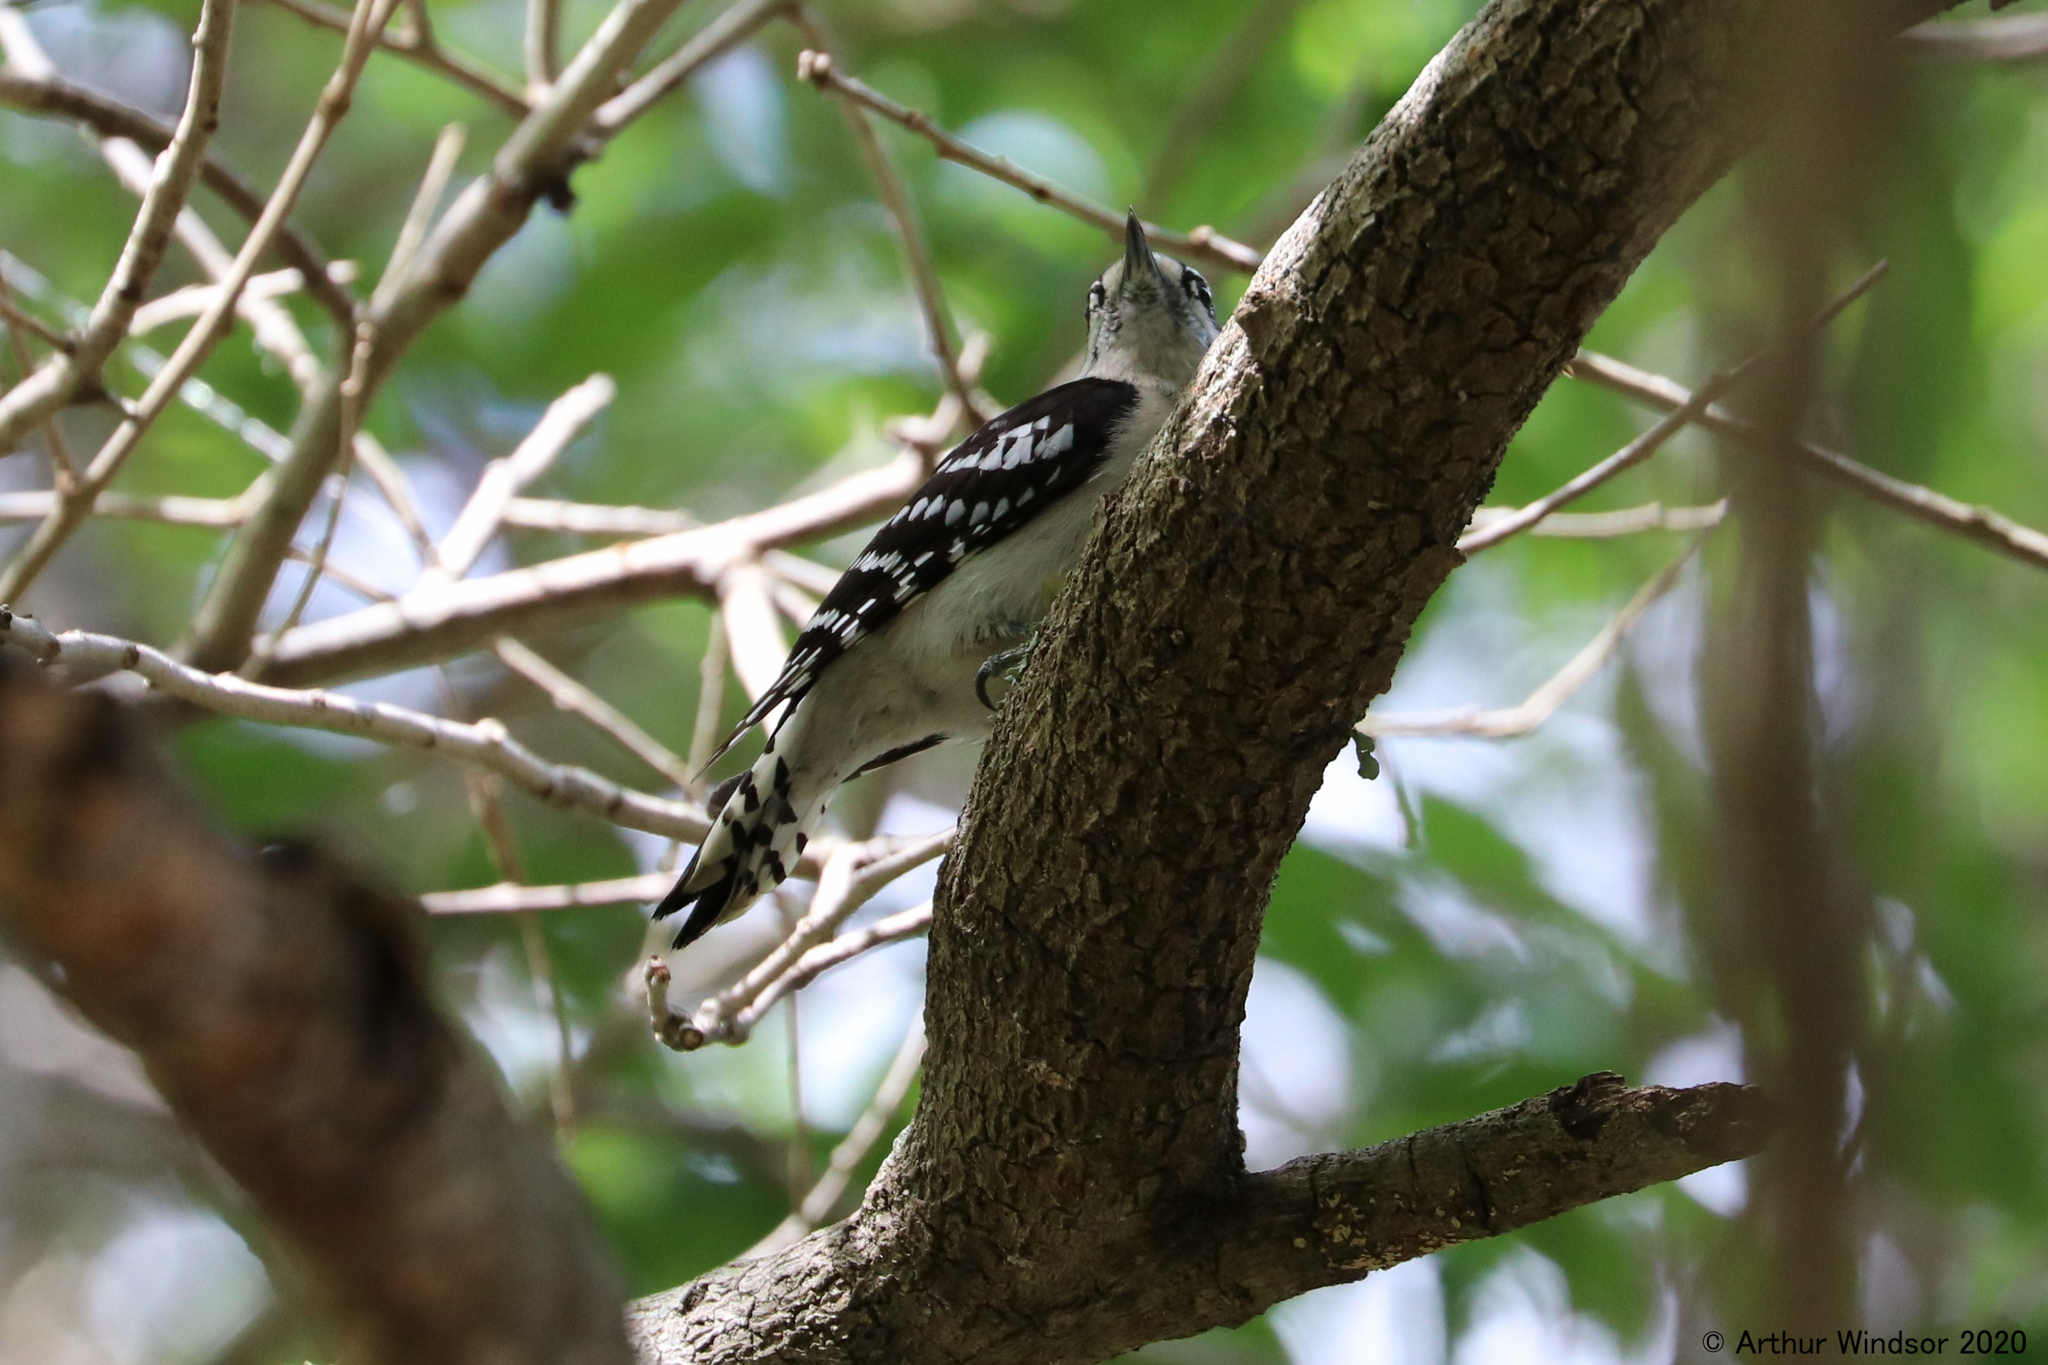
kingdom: Animalia
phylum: Chordata
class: Aves
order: Piciformes
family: Picidae
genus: Dryobates
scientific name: Dryobates pubescens
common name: Downy woodpecker
